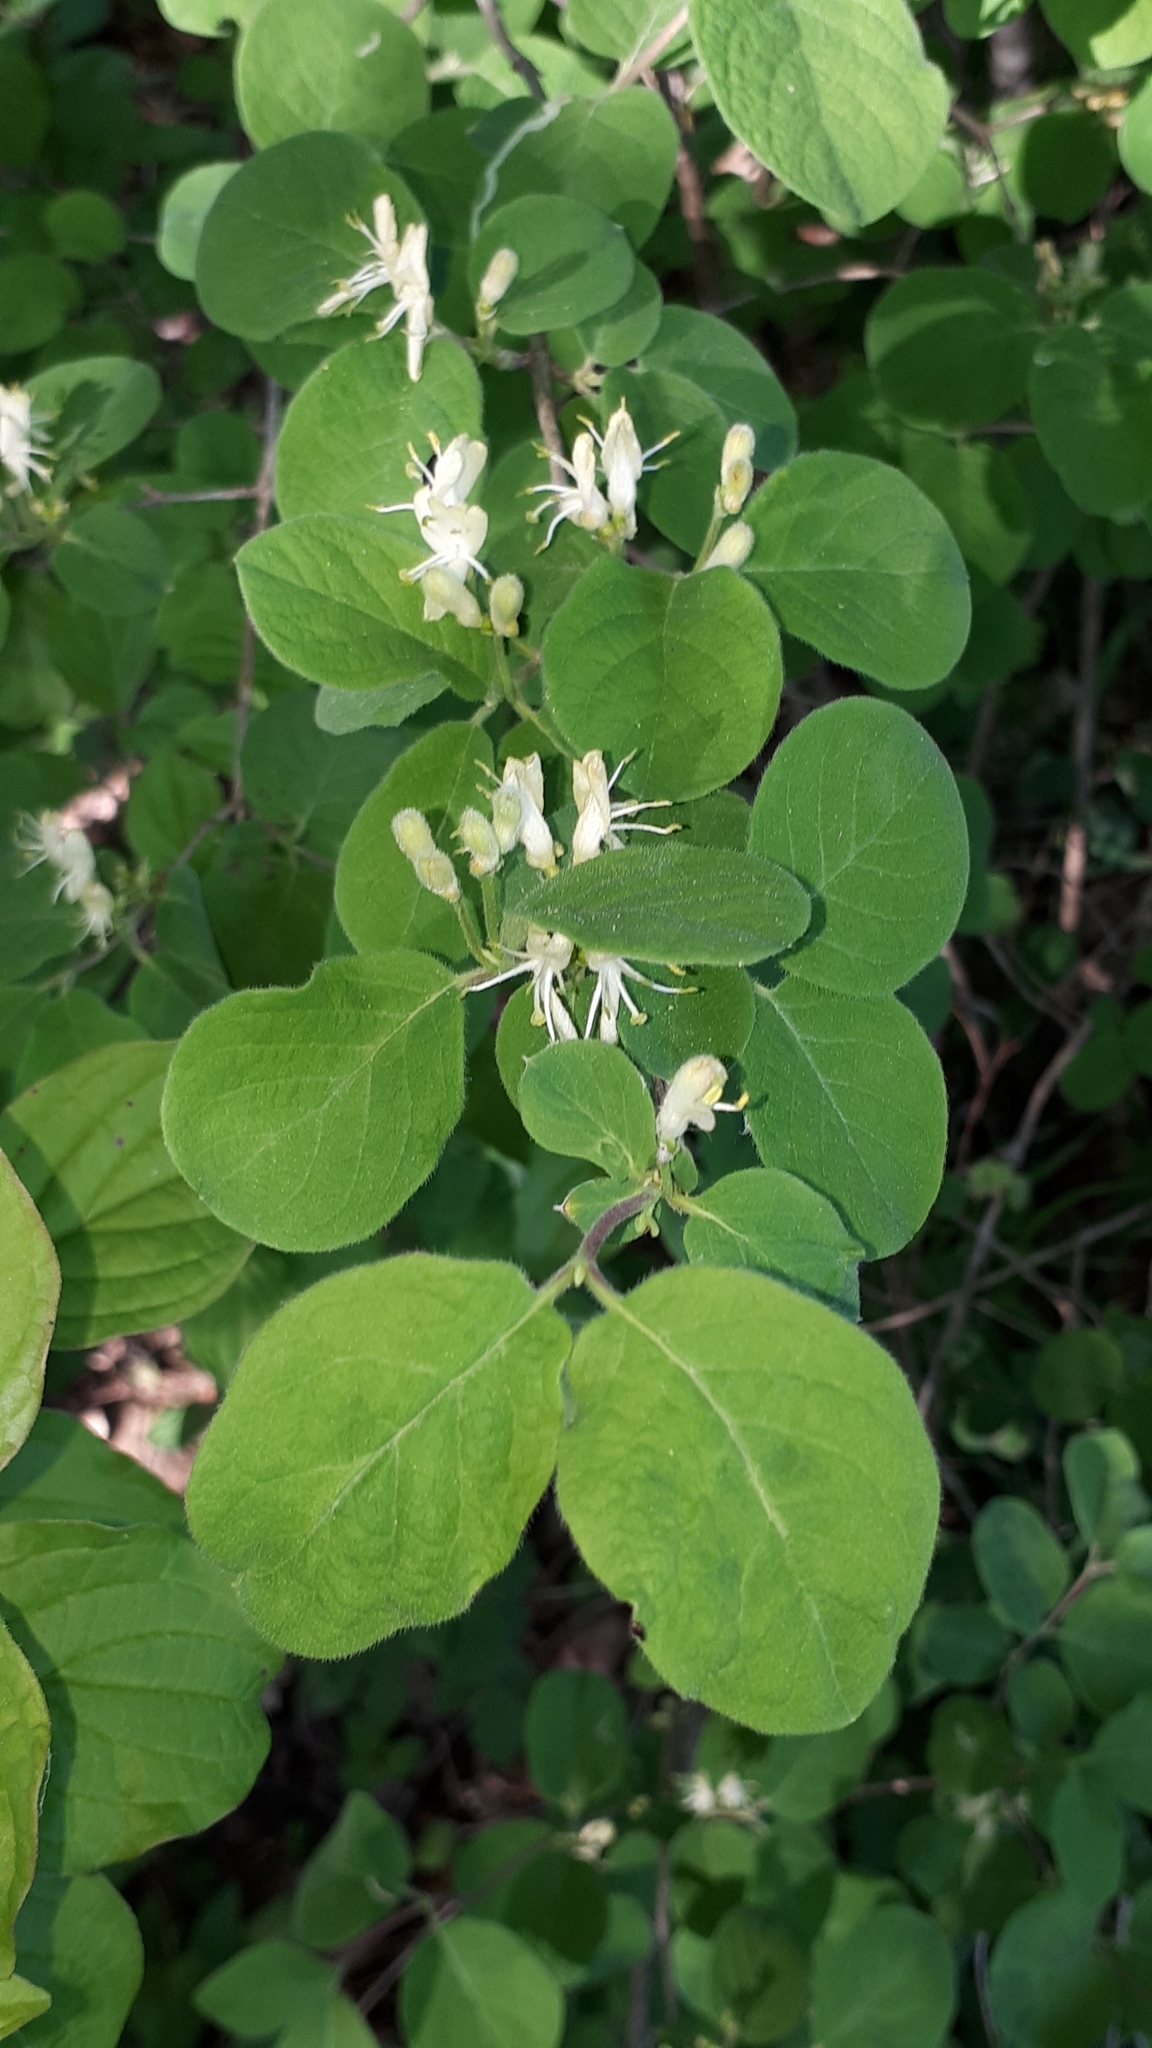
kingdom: Plantae
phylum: Tracheophyta
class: Magnoliopsida
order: Dipsacales
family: Caprifoliaceae
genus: Lonicera
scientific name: Lonicera xylosteum
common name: Fly honeysuckle
